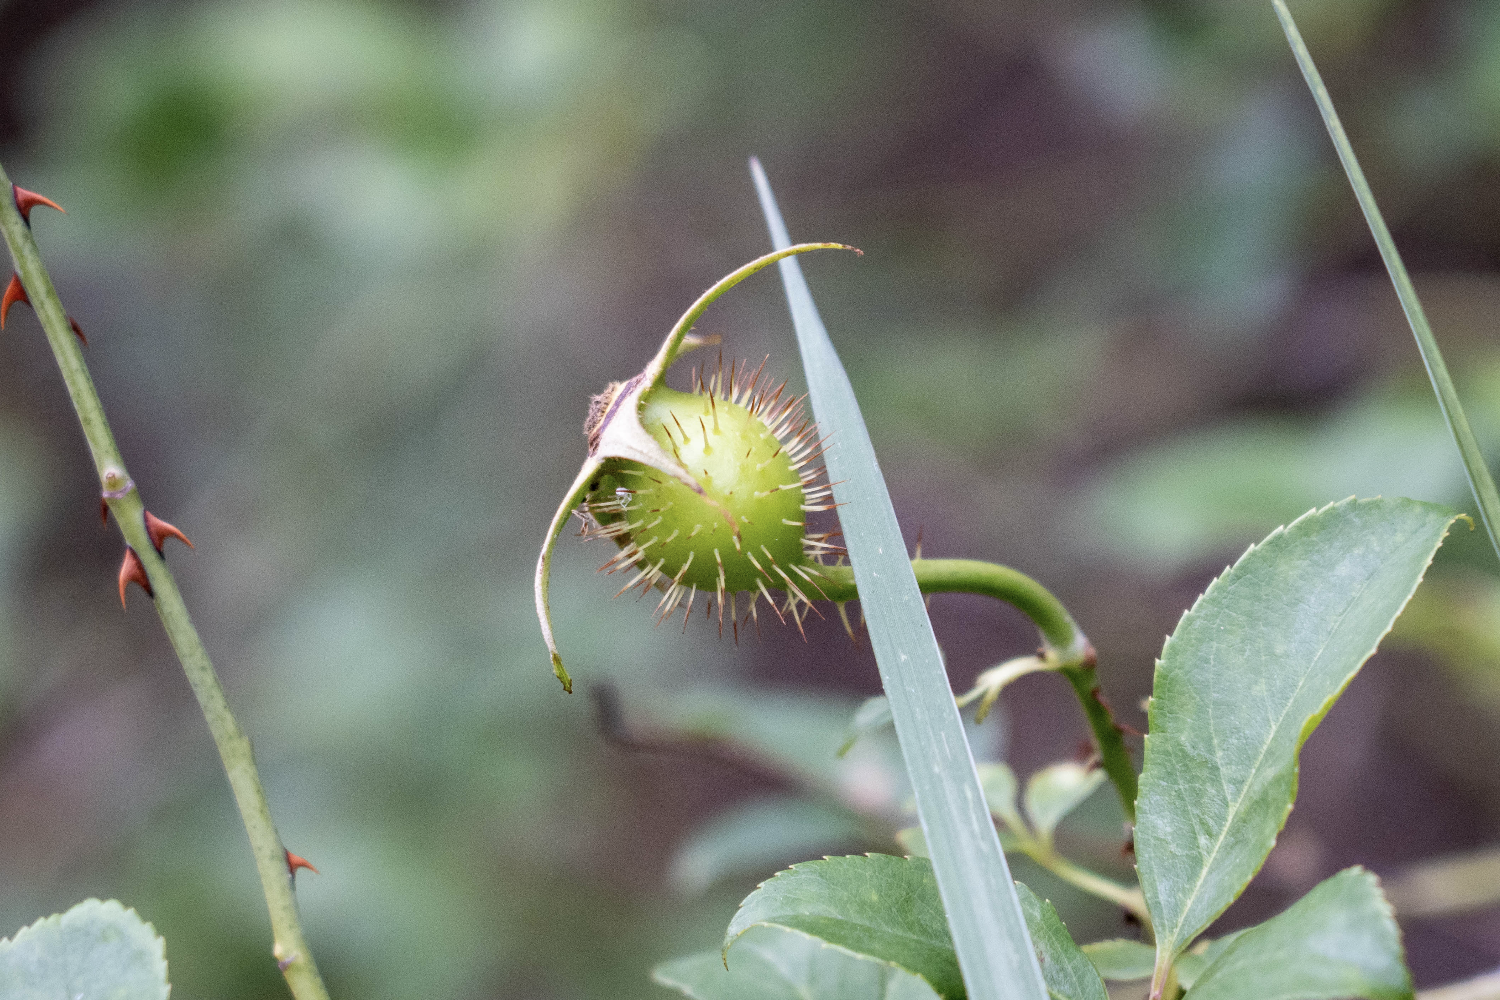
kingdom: Plantae
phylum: Tracheophyta
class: Magnoliopsida
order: Rosales
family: Rosaceae
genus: Rosa
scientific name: Rosa laevigata
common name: Cherokee rose
